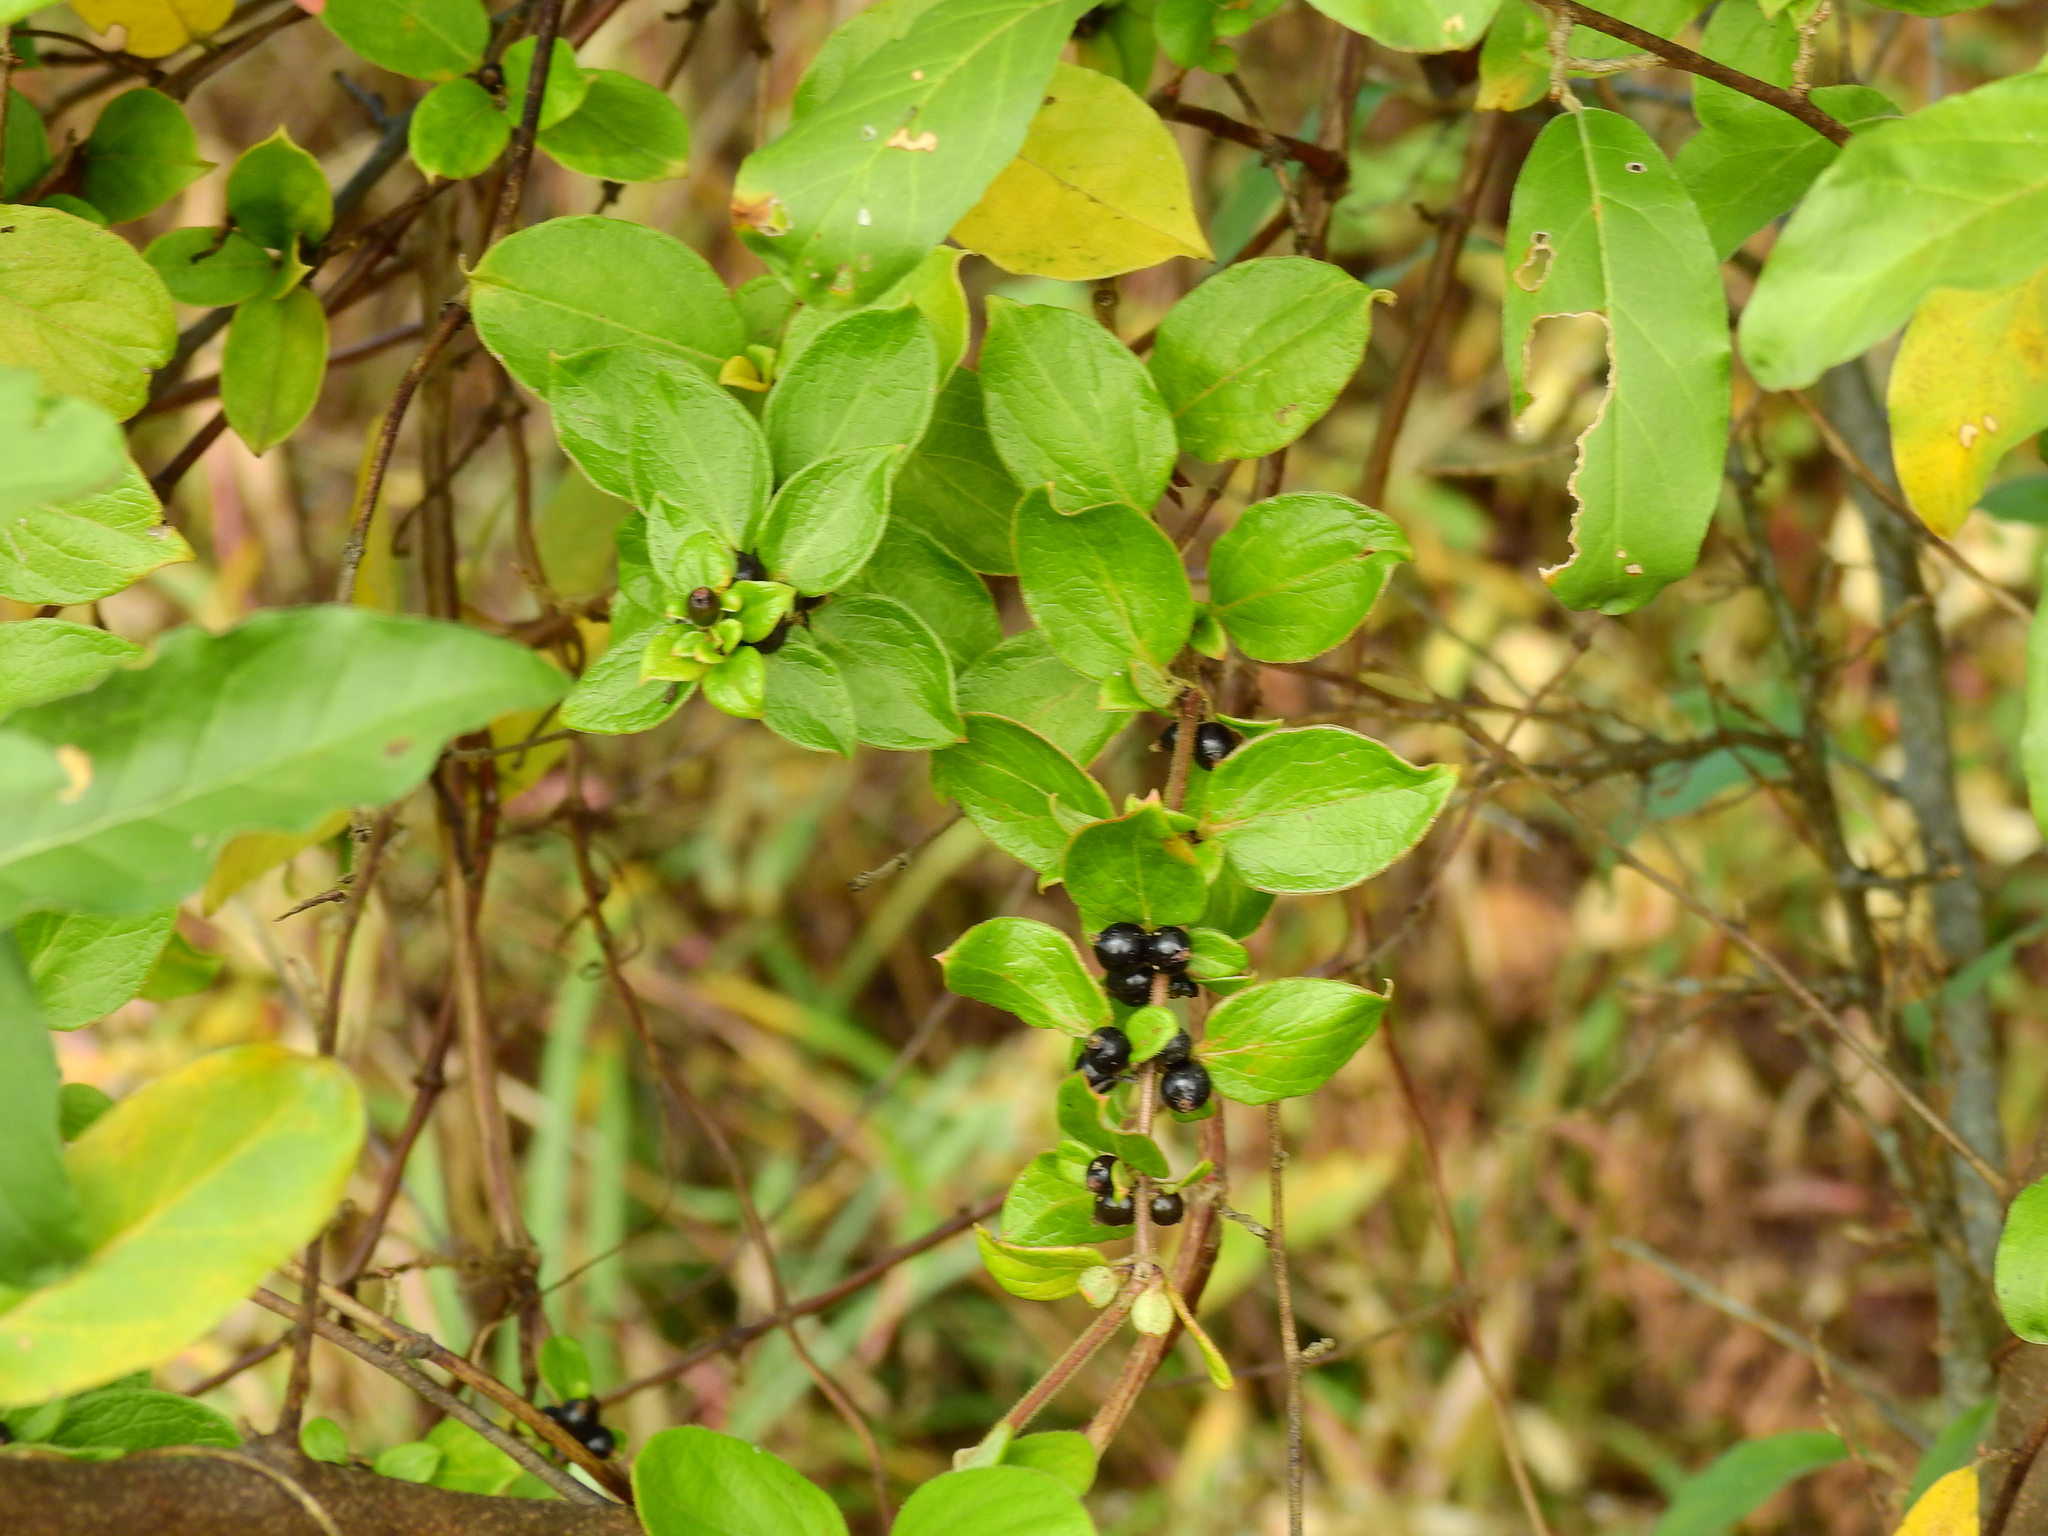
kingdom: Plantae
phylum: Tracheophyta
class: Magnoliopsida
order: Dipsacales
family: Caprifoliaceae
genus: Lonicera
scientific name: Lonicera japonica
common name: Japanese honeysuckle
